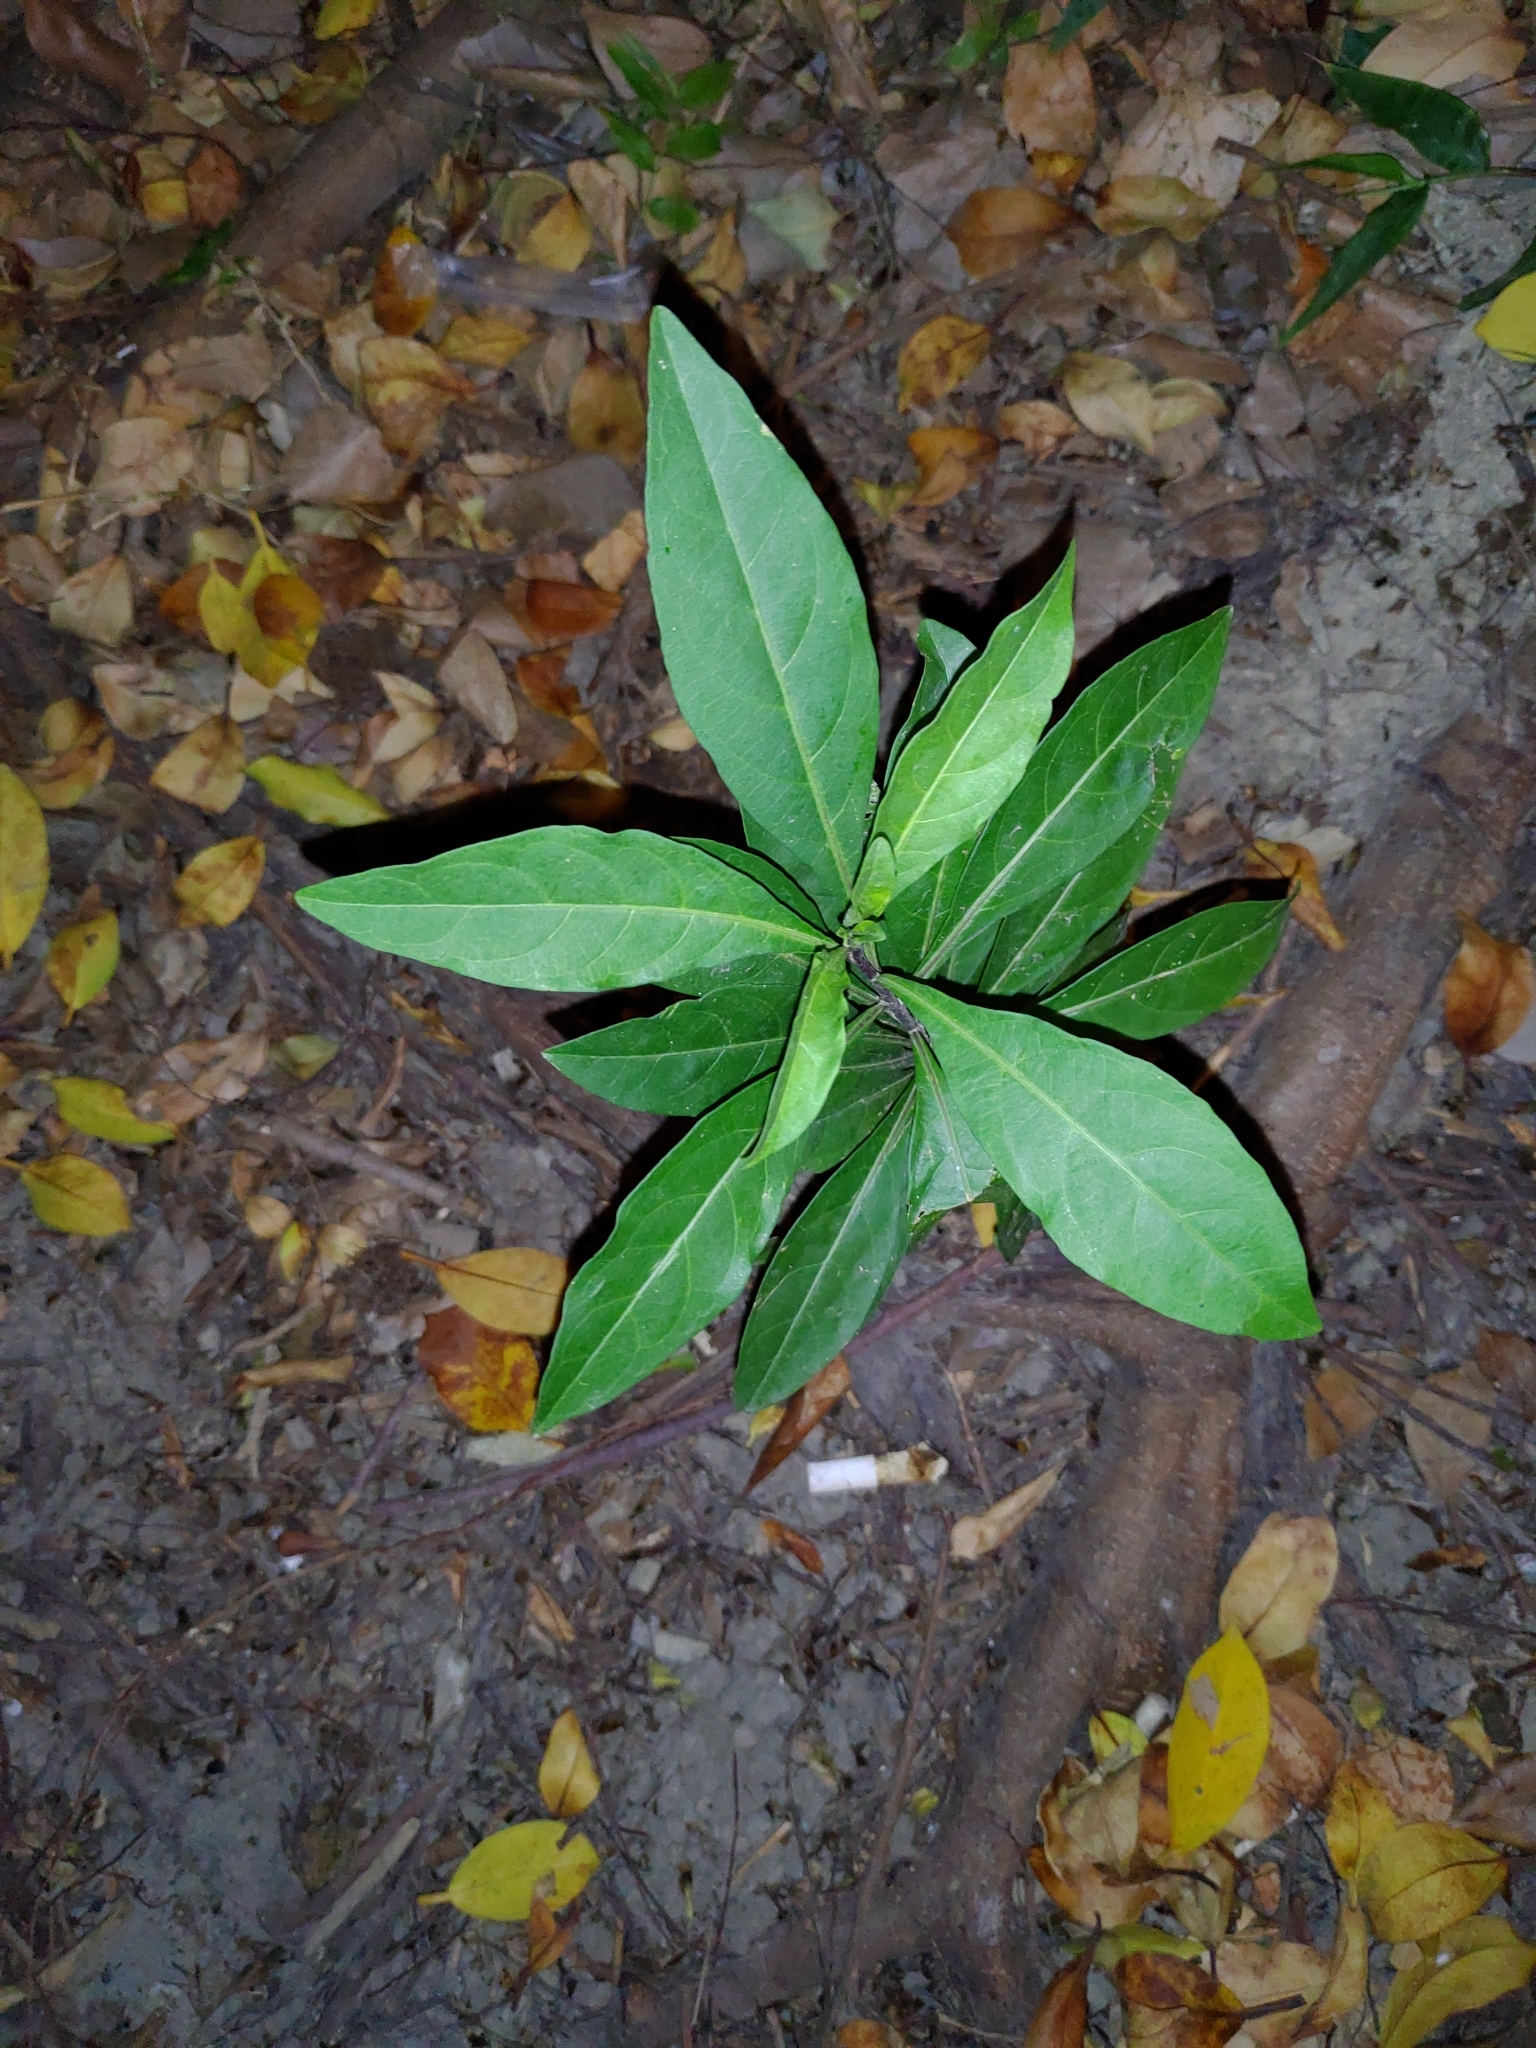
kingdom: Plantae
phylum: Tracheophyta
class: Magnoliopsida
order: Solanales
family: Solanaceae
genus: Solanum
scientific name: Solanum diphyllum
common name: Twoleaf nightshade
